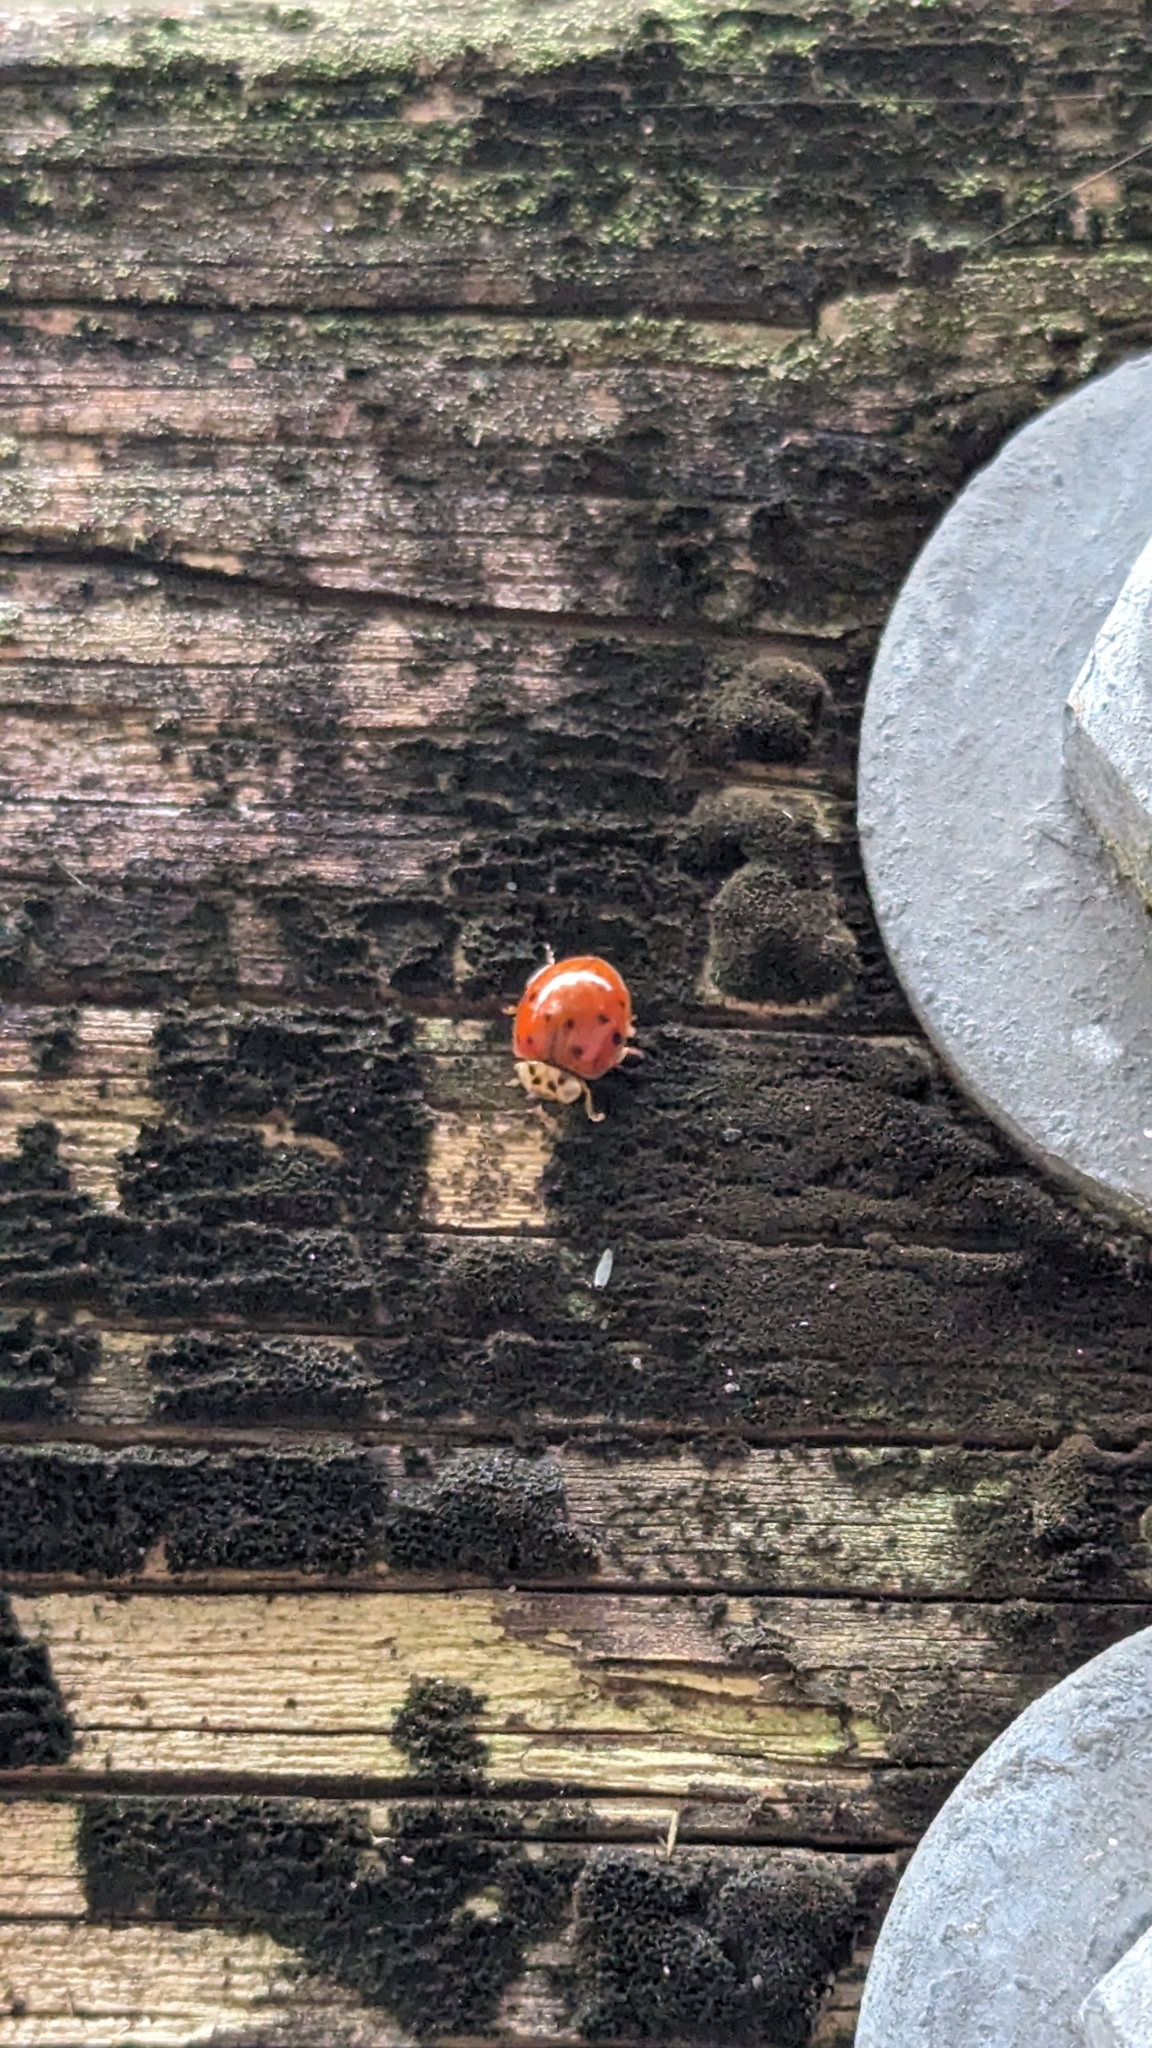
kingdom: Animalia
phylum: Arthropoda
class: Insecta
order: Coleoptera
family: Coccinellidae
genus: Harmonia
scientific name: Harmonia axyridis
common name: Harlequin ladybird
